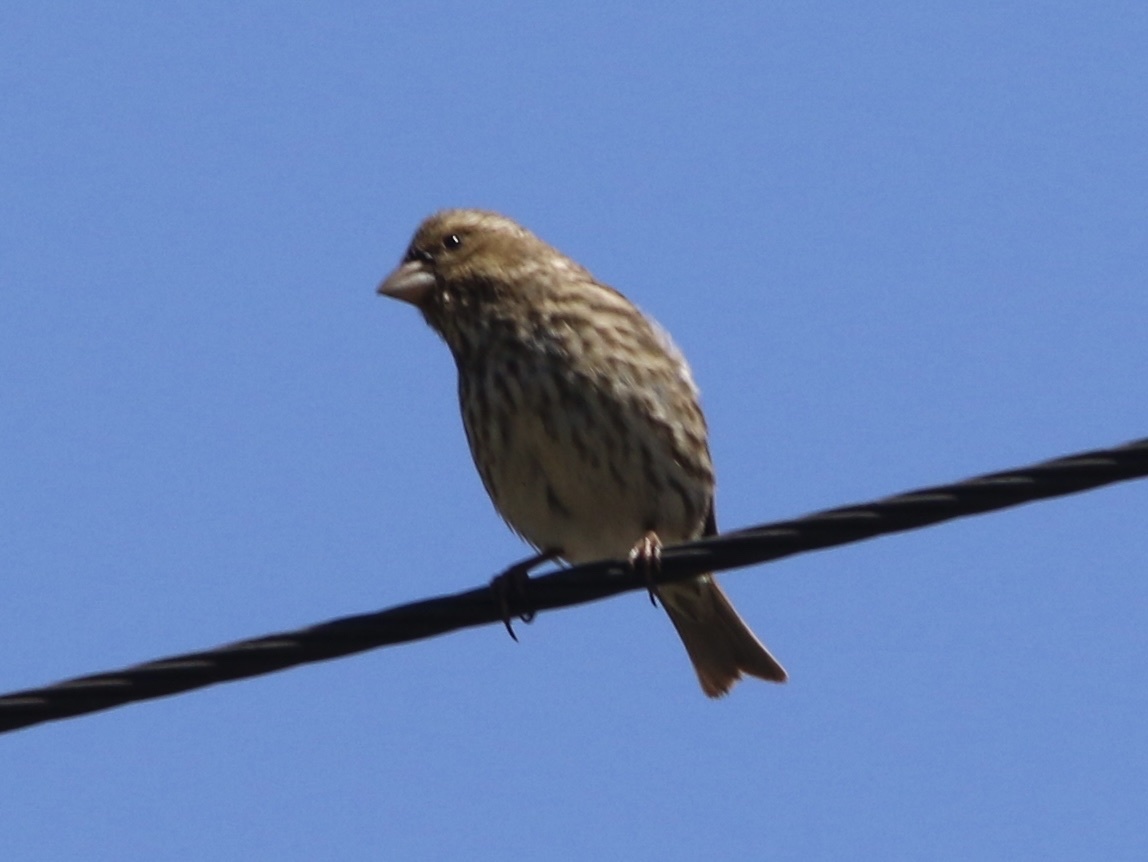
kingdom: Animalia
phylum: Chordata
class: Aves
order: Passeriformes
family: Fringillidae
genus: Haemorhous
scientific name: Haemorhous purpureus
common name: Purple finch
